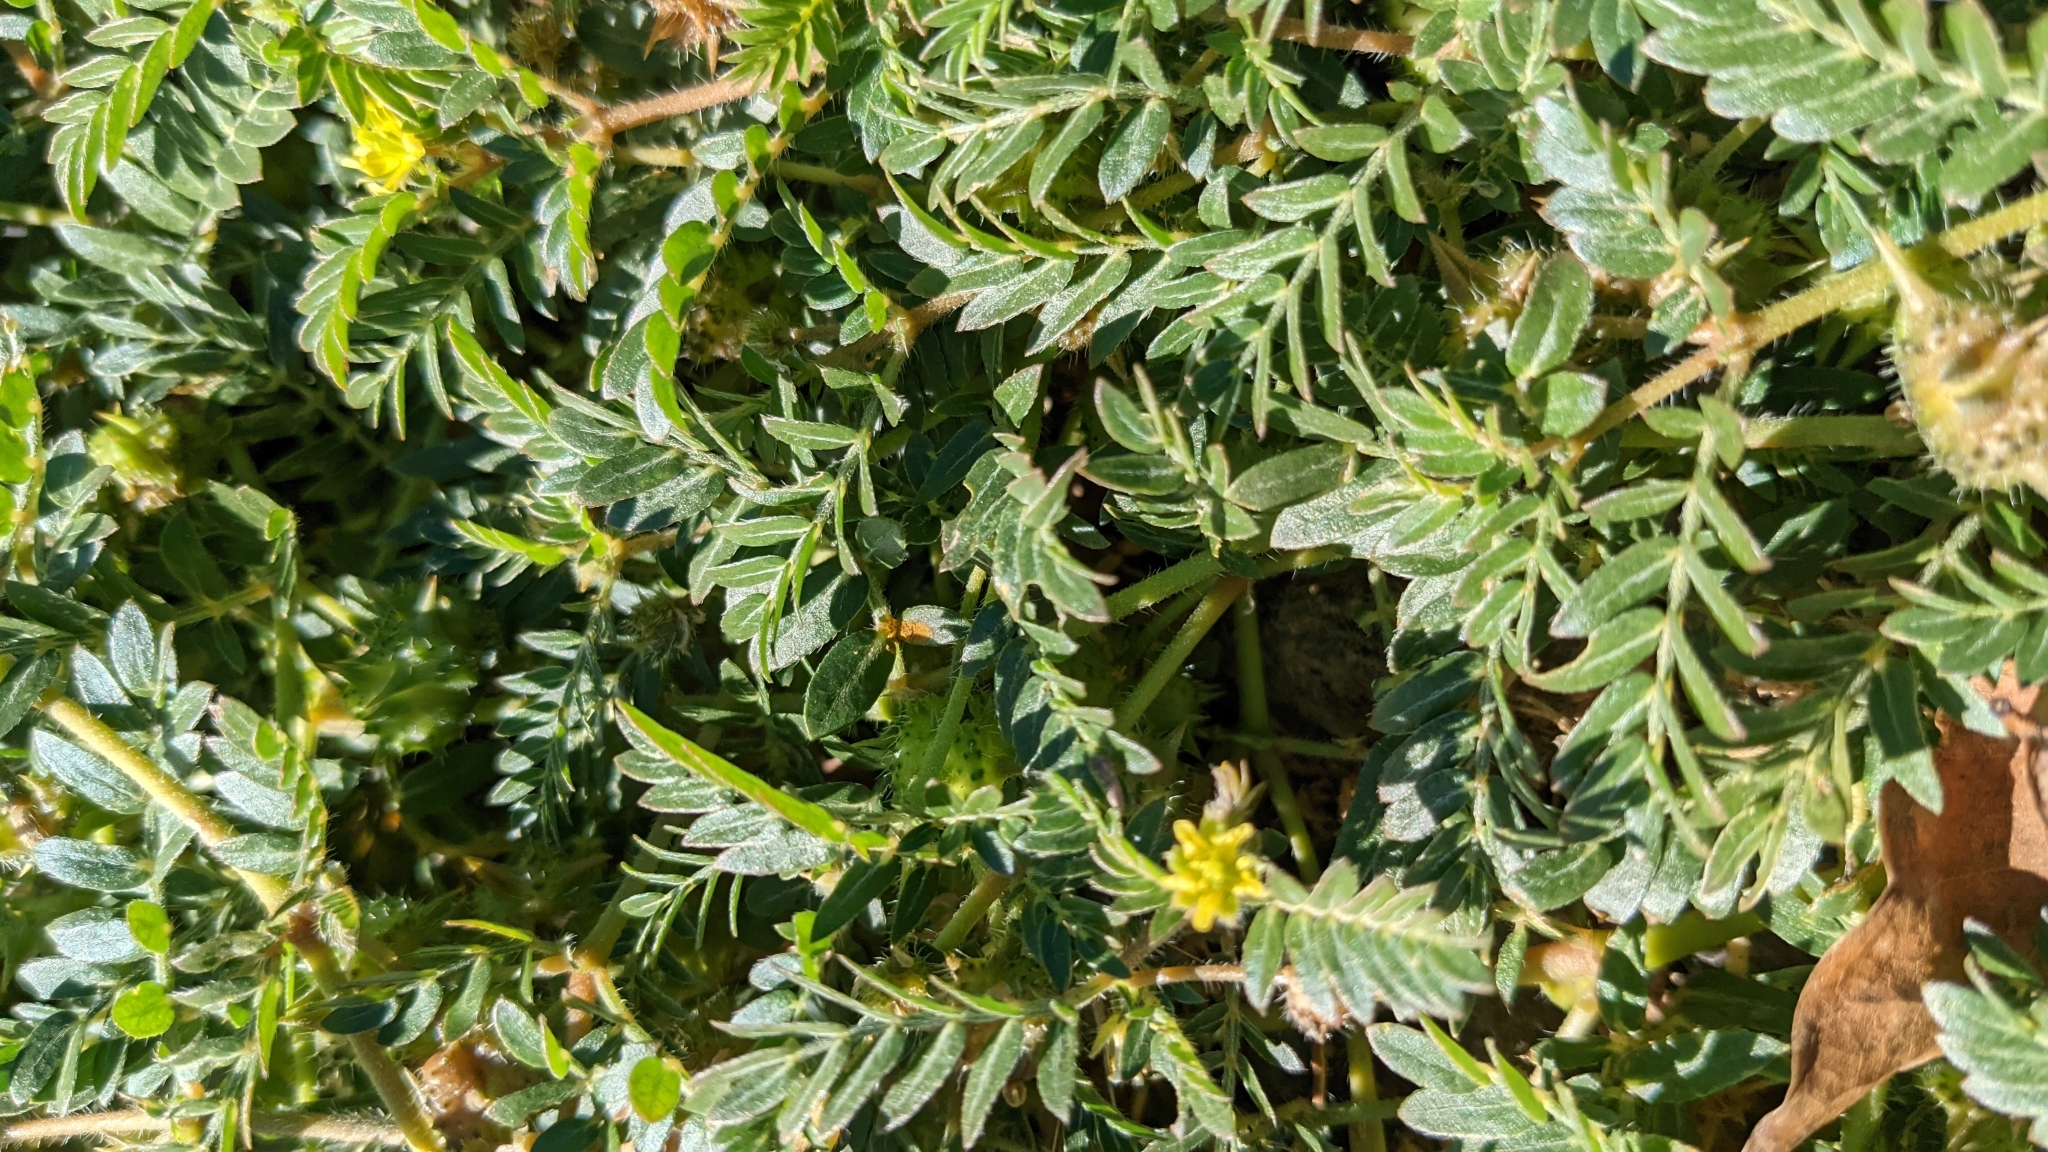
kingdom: Plantae
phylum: Tracheophyta
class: Magnoliopsida
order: Zygophyllales
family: Zygophyllaceae
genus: Tribulus
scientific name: Tribulus terrestris
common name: Puncturevine
